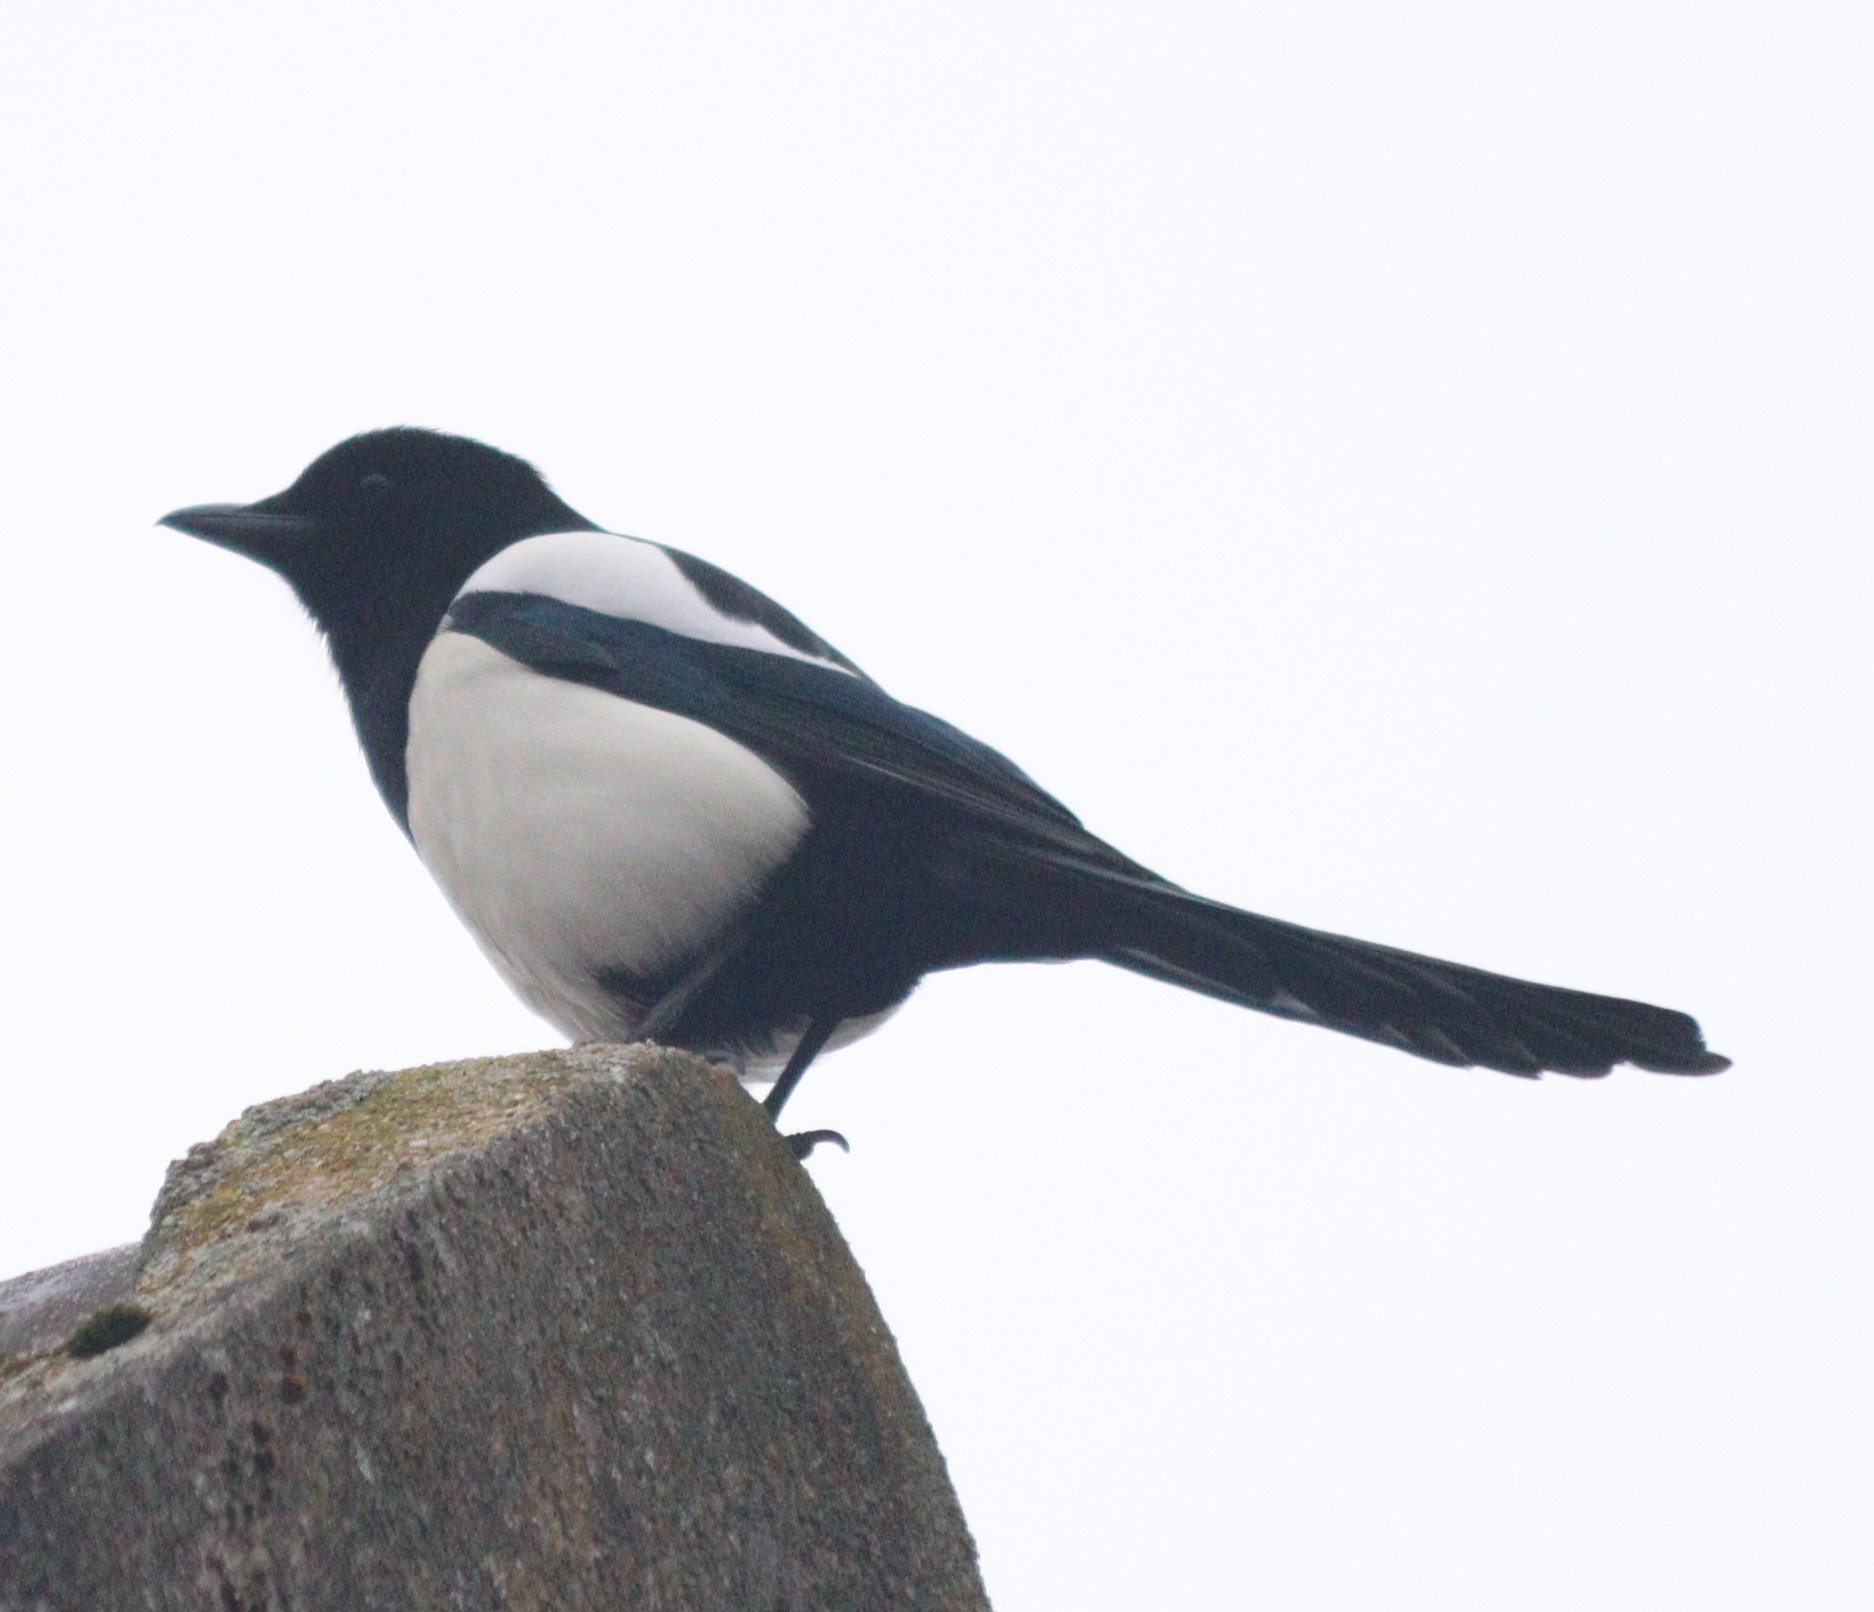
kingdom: Animalia
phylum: Chordata
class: Aves
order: Passeriformes
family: Corvidae
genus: Pica
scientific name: Pica pica
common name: Eurasian magpie
